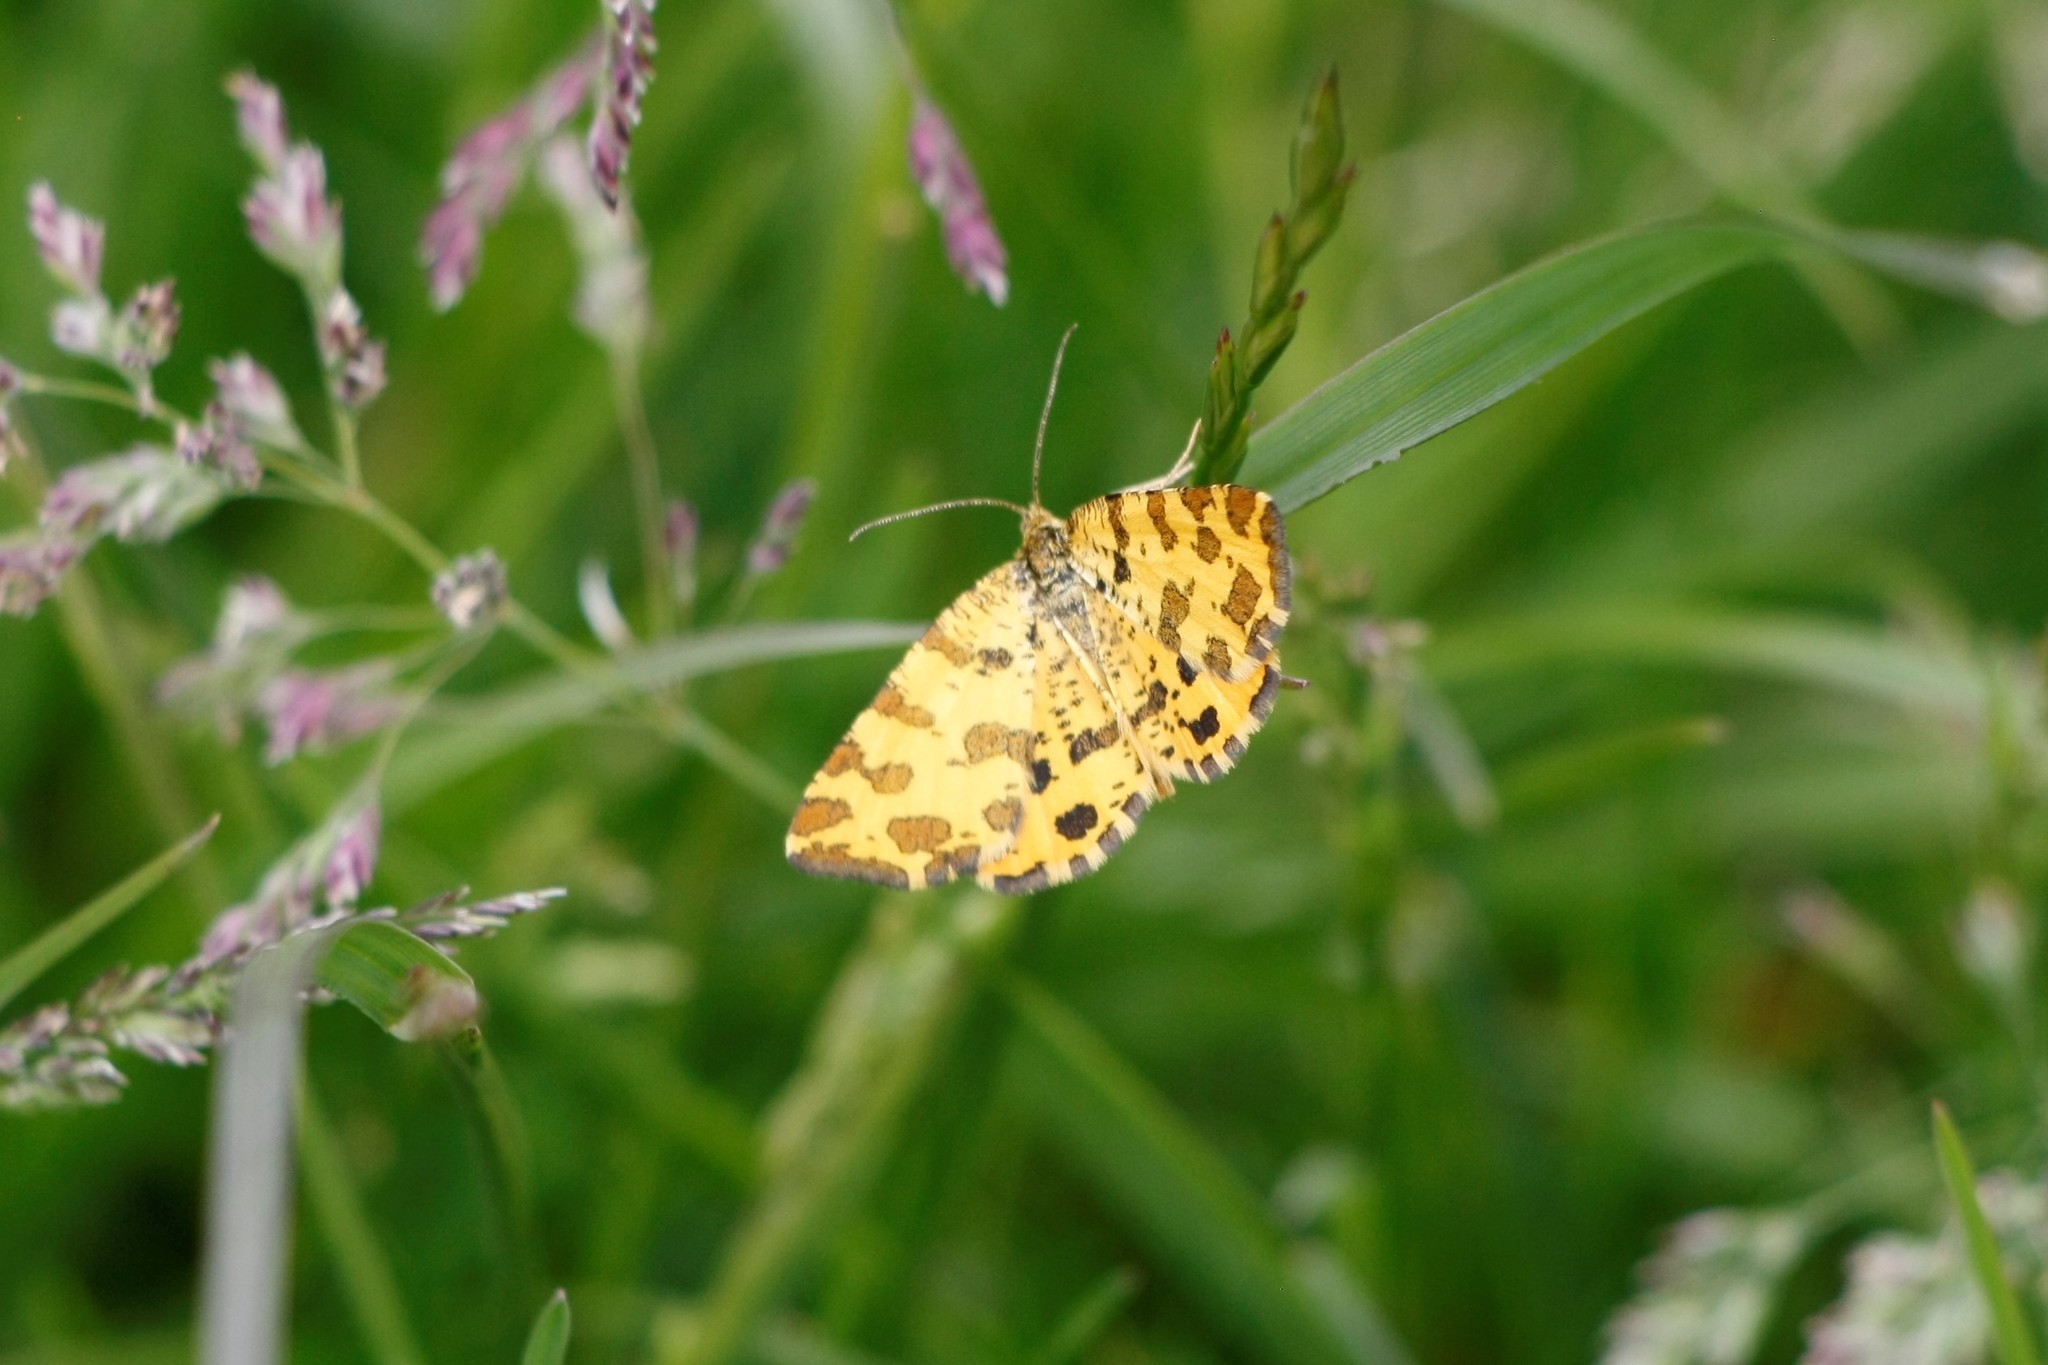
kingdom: Animalia
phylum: Arthropoda
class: Insecta
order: Lepidoptera
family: Geometridae
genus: Pseudopanthera
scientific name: Pseudopanthera macularia
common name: Speckled yellow
